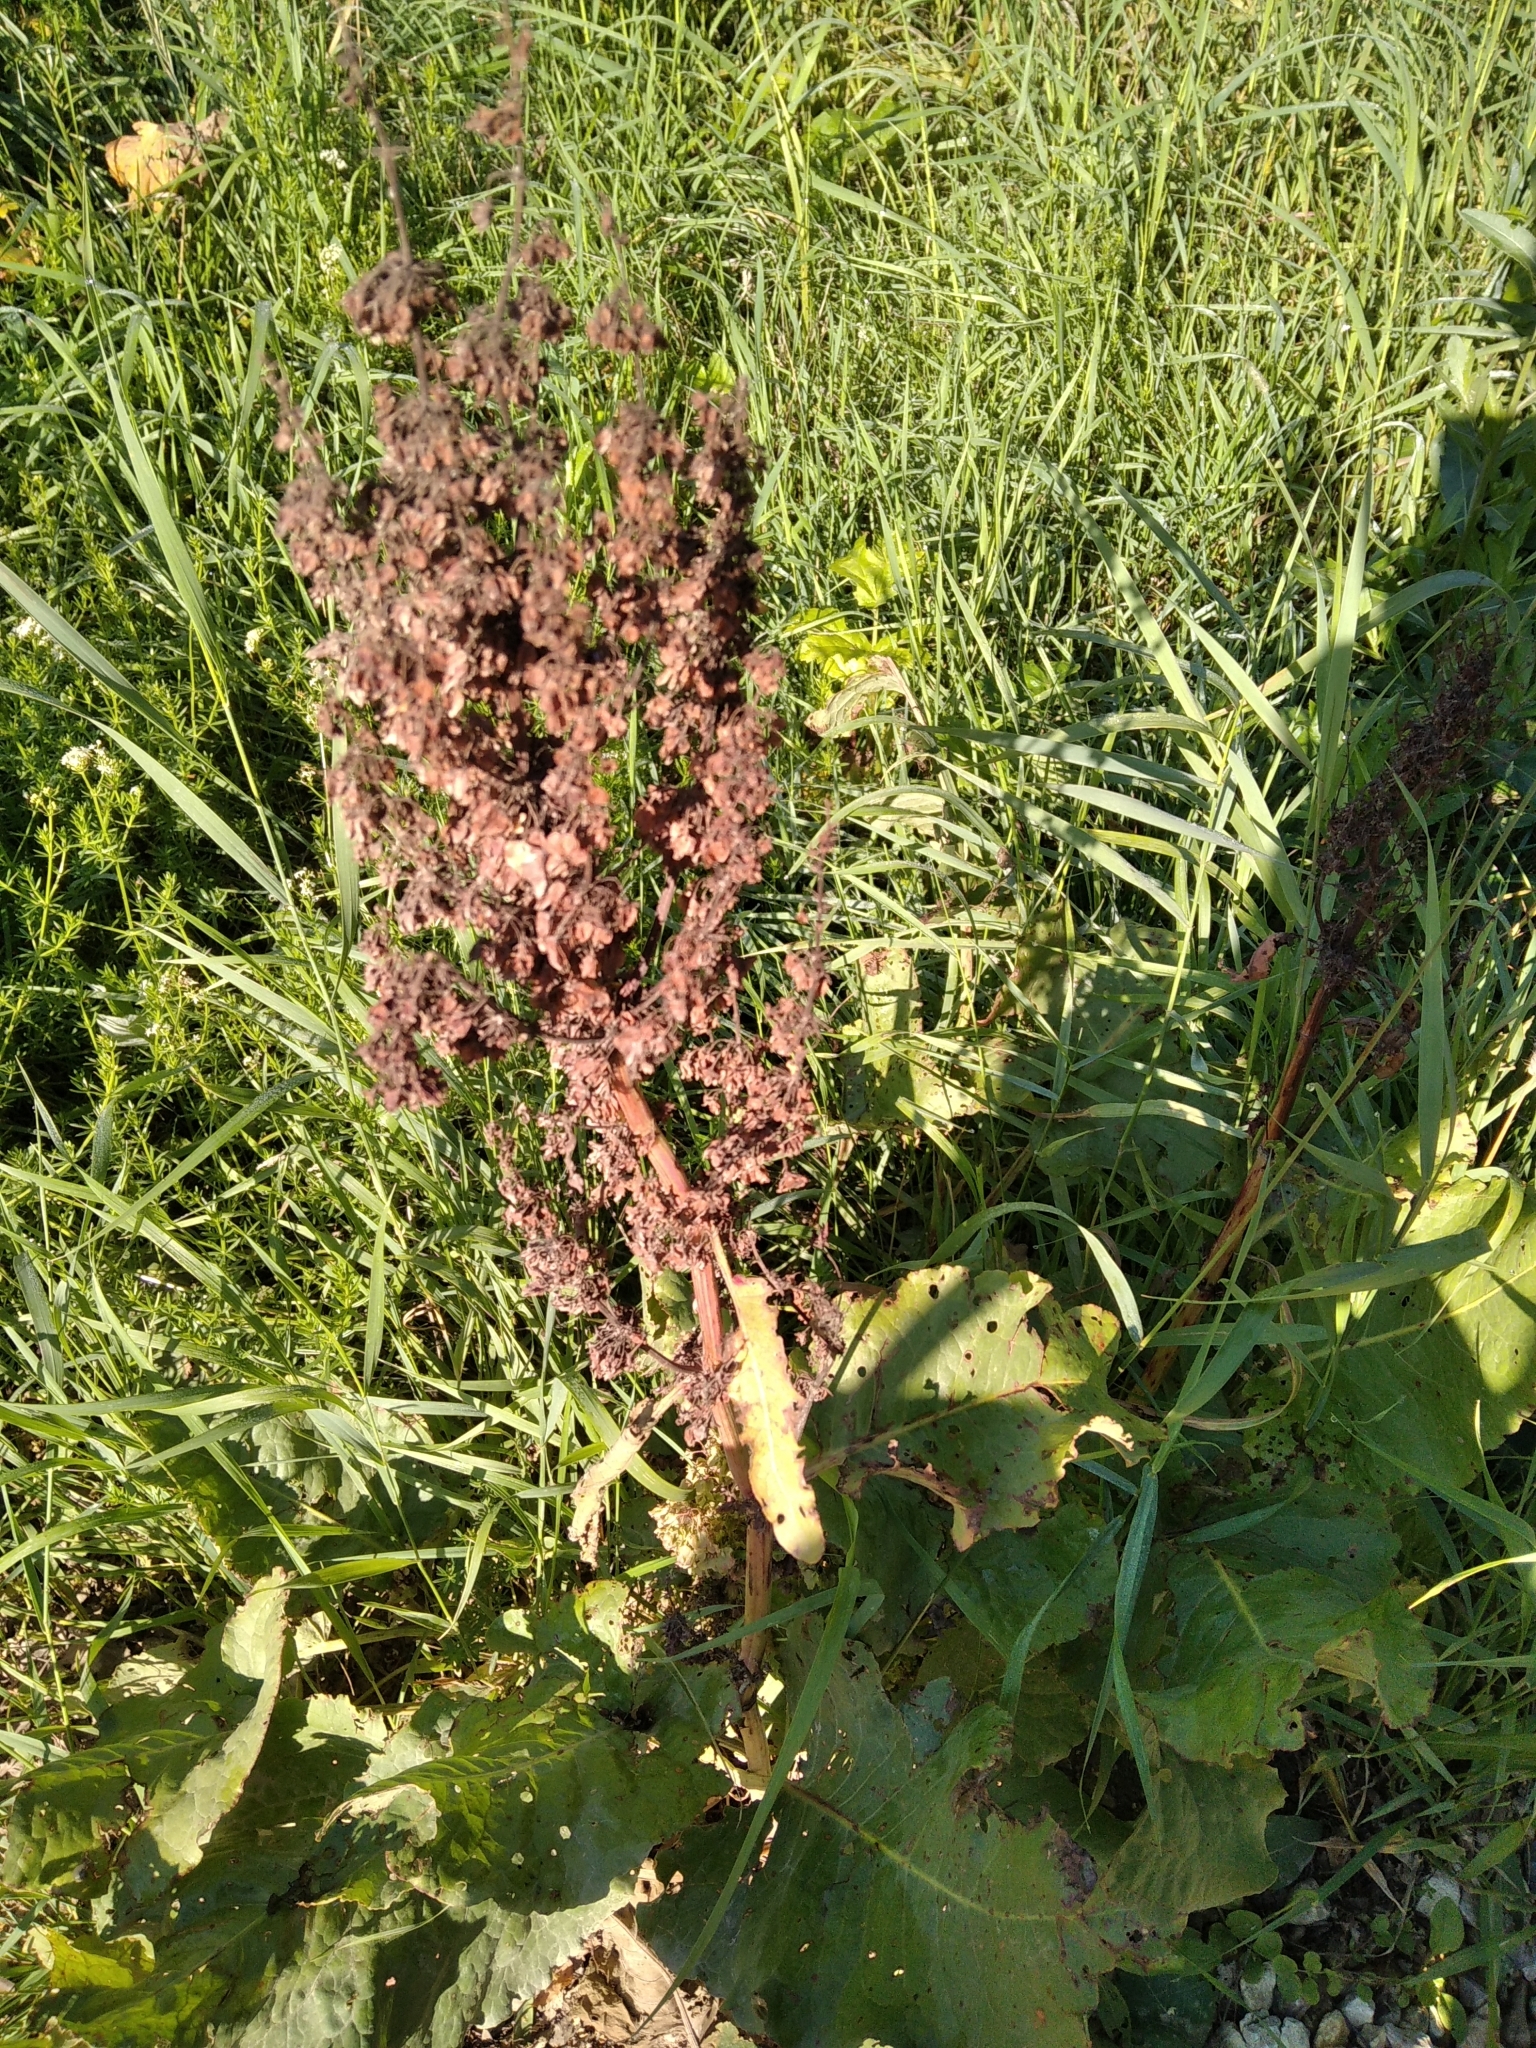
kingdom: Plantae
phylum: Tracheophyta
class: Magnoliopsida
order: Caryophyllales
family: Polygonaceae
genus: Rumex
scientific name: Rumex confertus
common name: Russian dock
